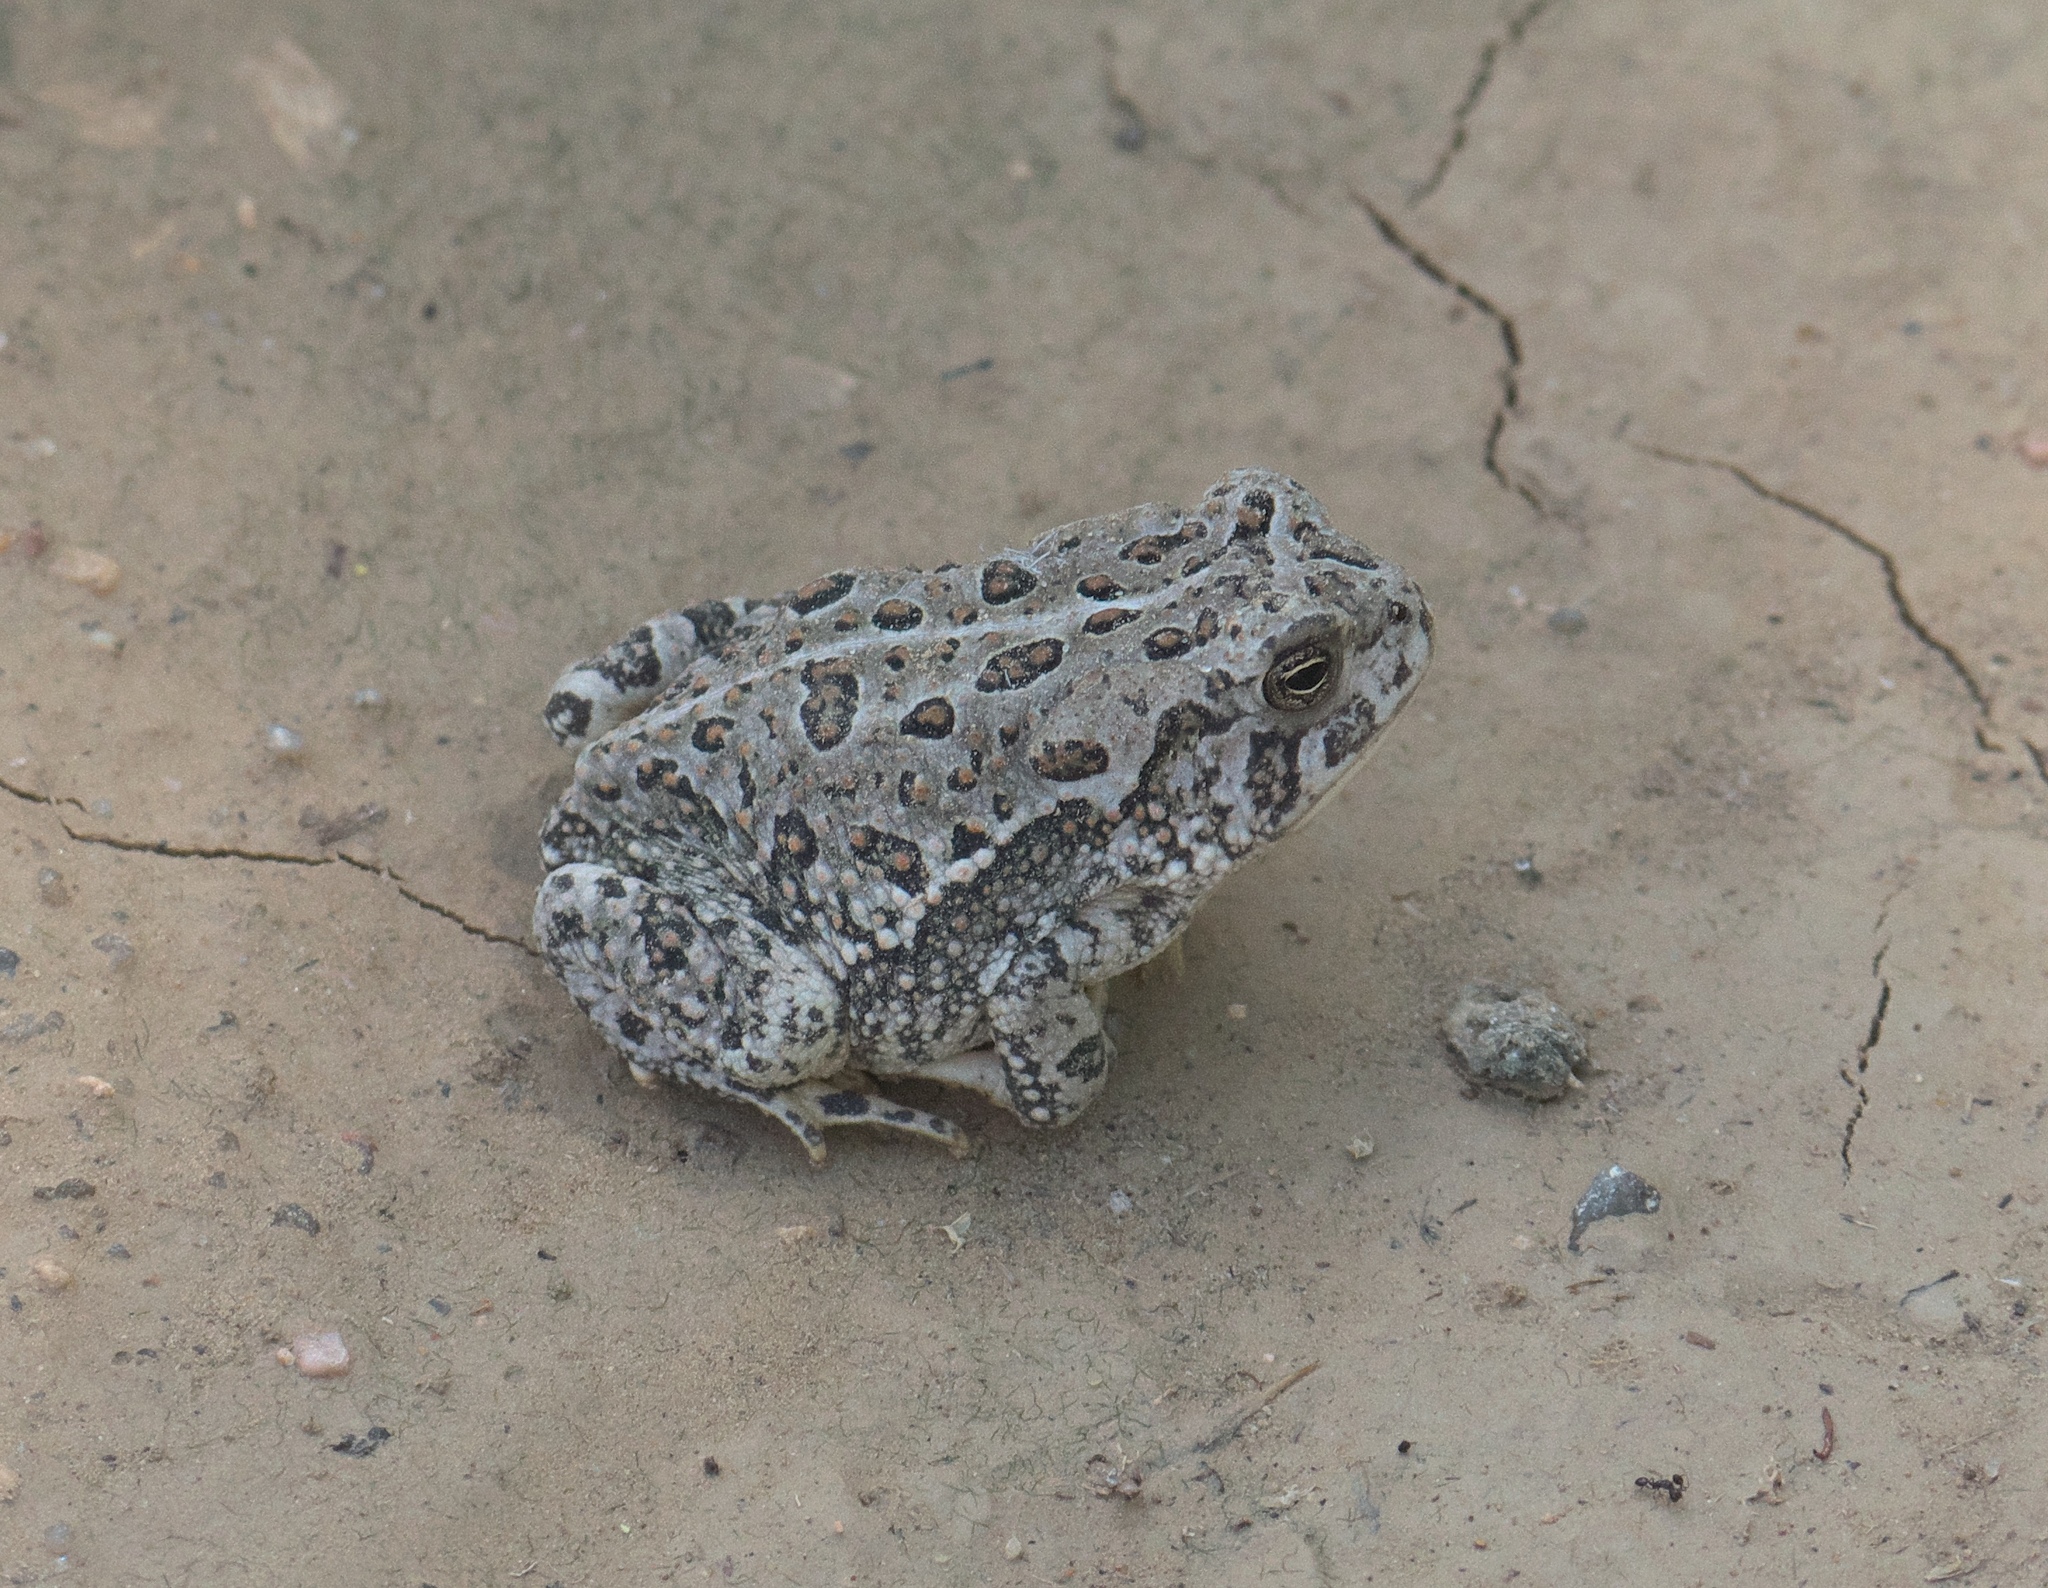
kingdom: Animalia
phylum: Chordata
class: Amphibia
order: Anura
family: Bufonidae
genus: Anaxyrus
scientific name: Anaxyrus woodhousii
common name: Woodhouse's toad
